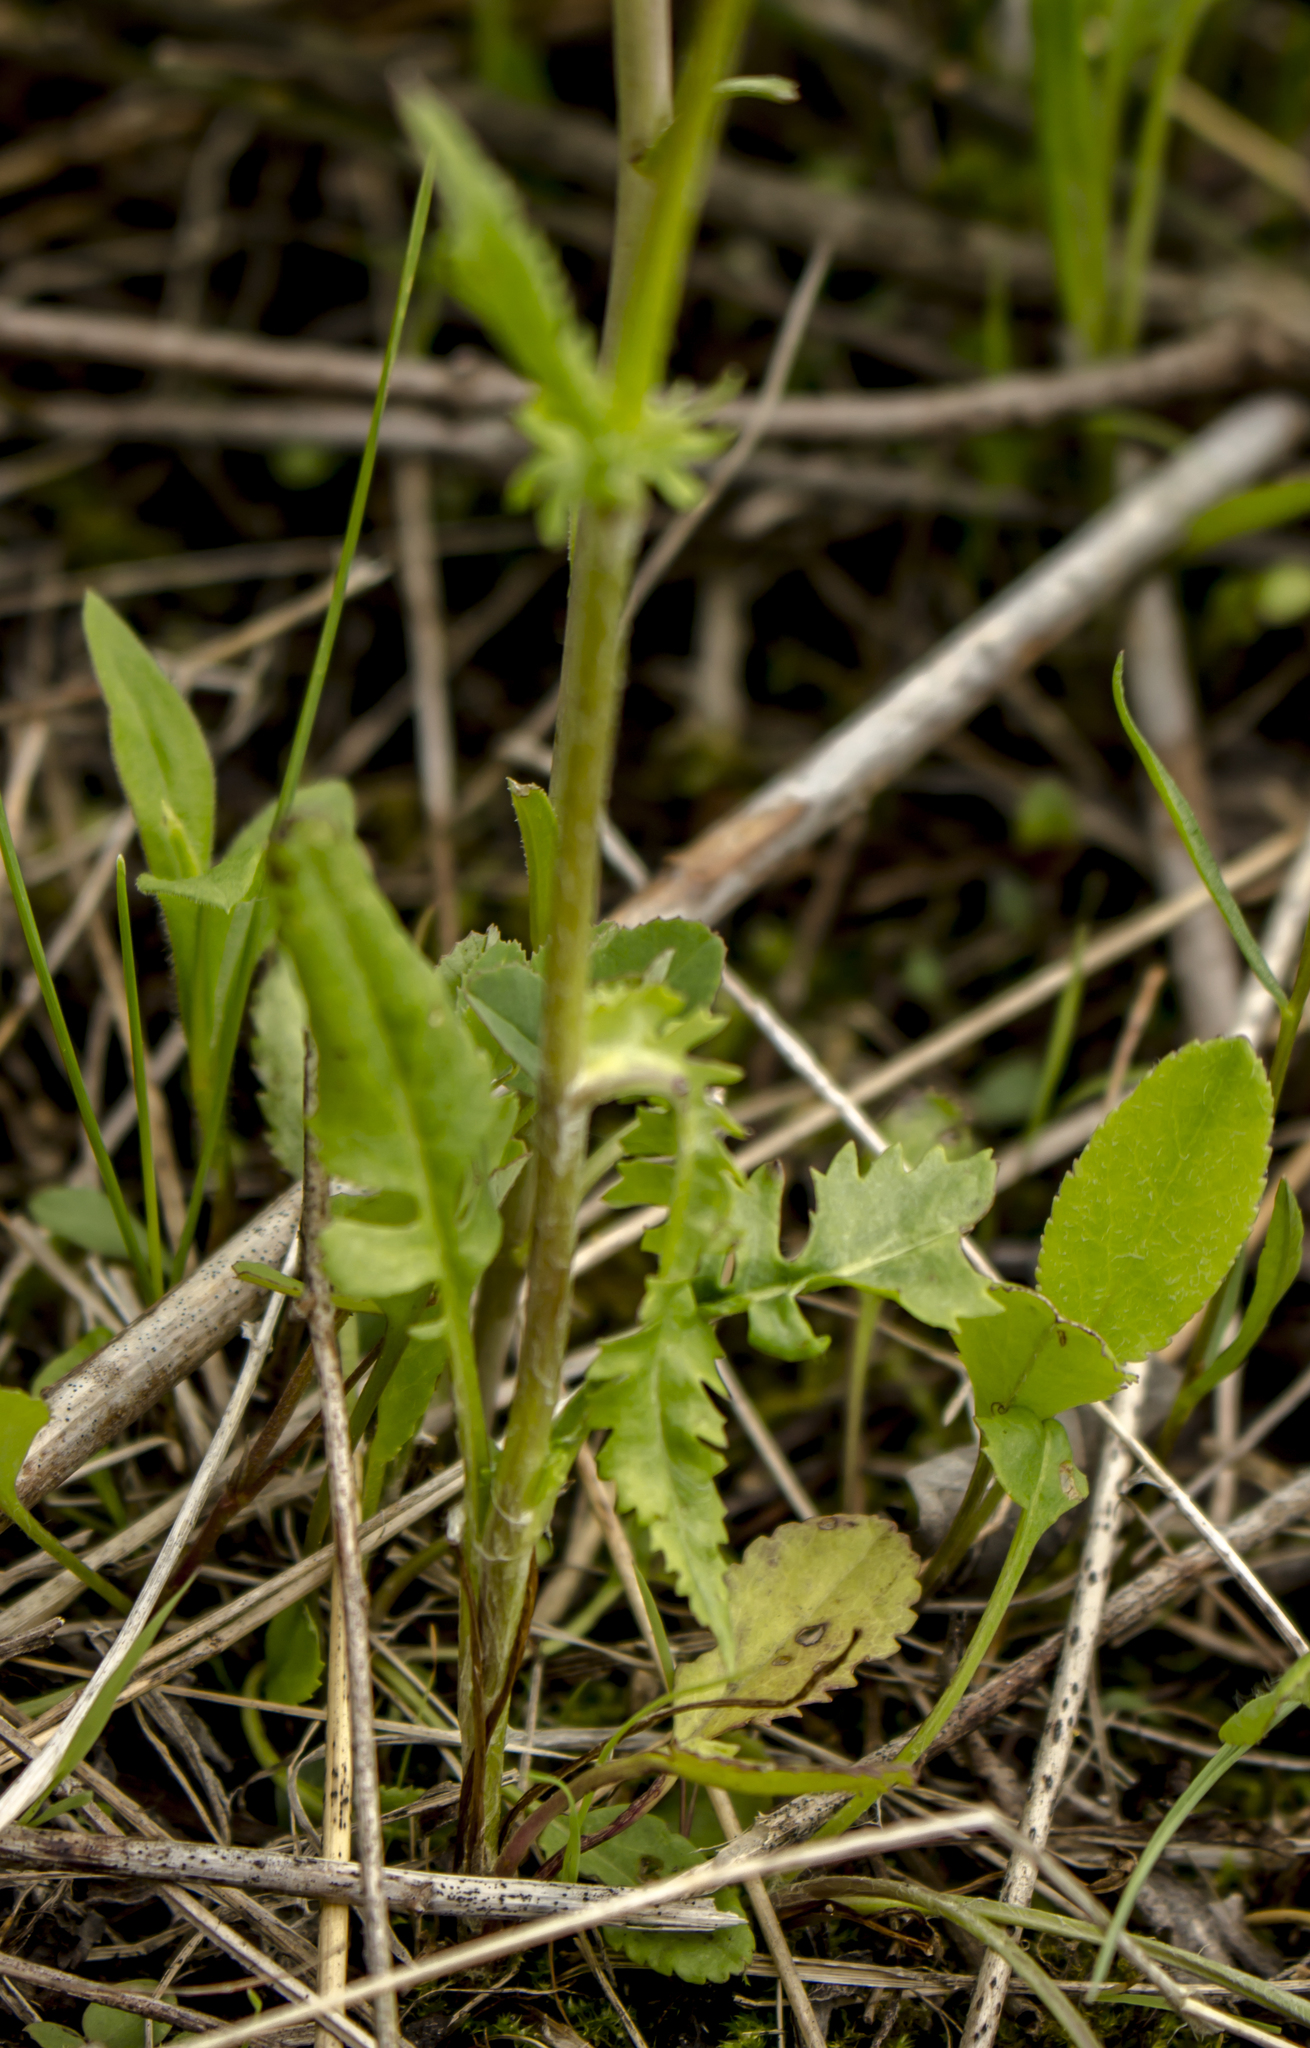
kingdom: Plantae
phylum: Tracheophyta
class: Magnoliopsida
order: Asterales
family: Asteraceae
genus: Packera
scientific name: Packera paupercula
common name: Balsam groundsel
